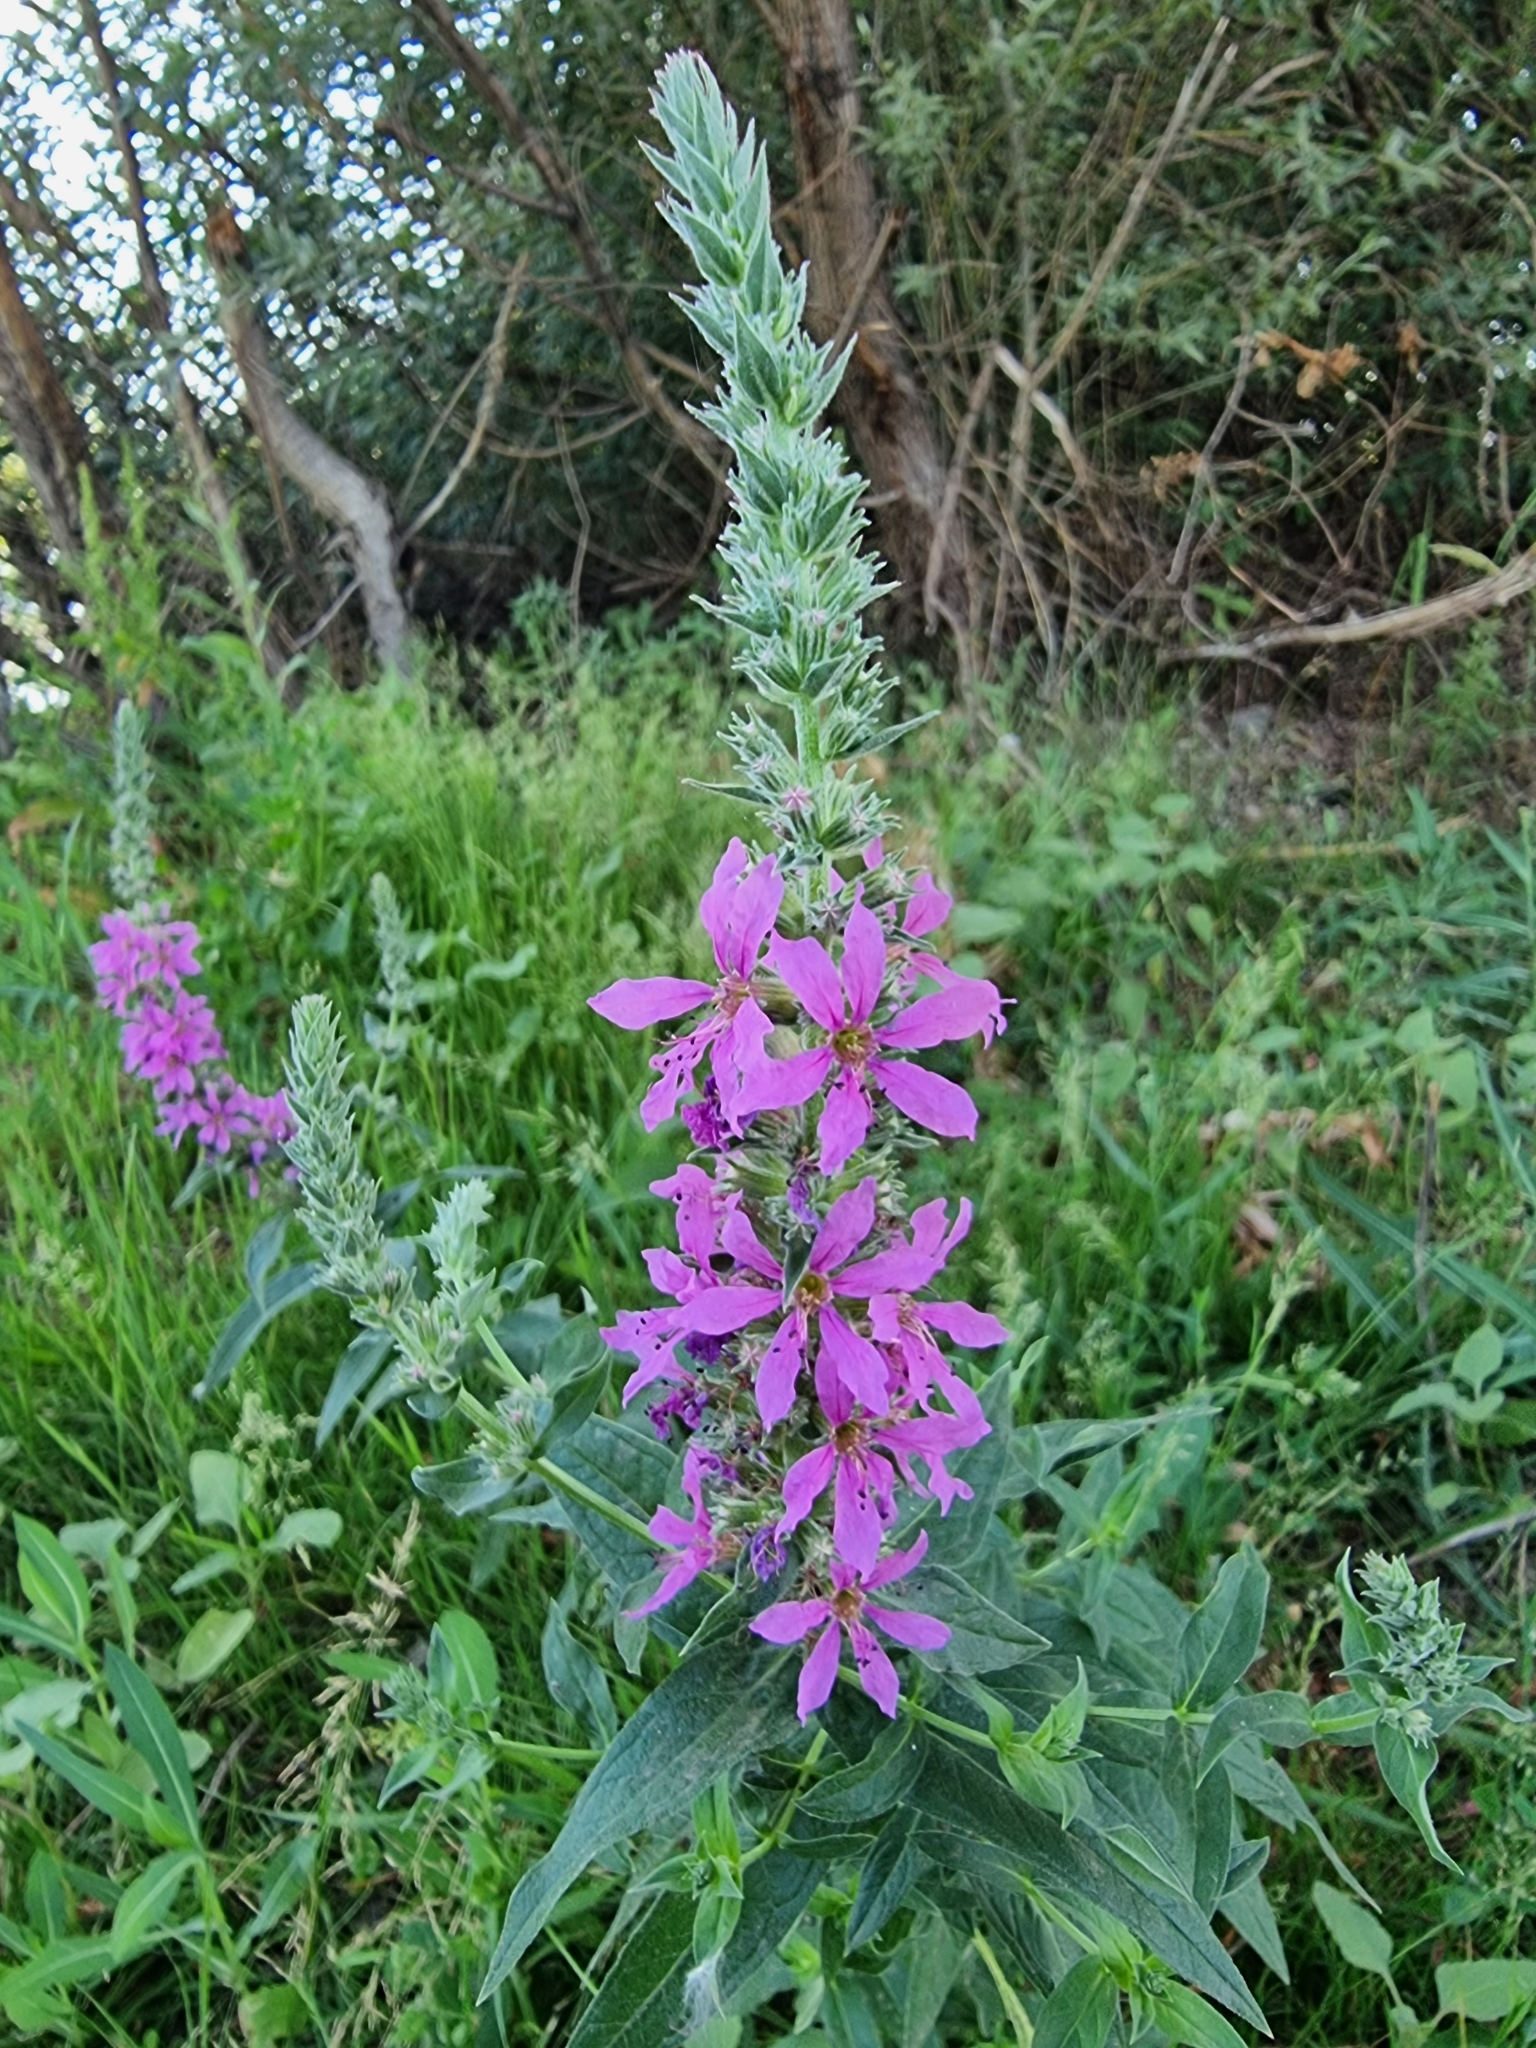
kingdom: Plantae
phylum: Tracheophyta
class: Magnoliopsida
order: Myrtales
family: Lythraceae
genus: Lythrum
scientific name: Lythrum salicaria
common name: Purple loosestrife
